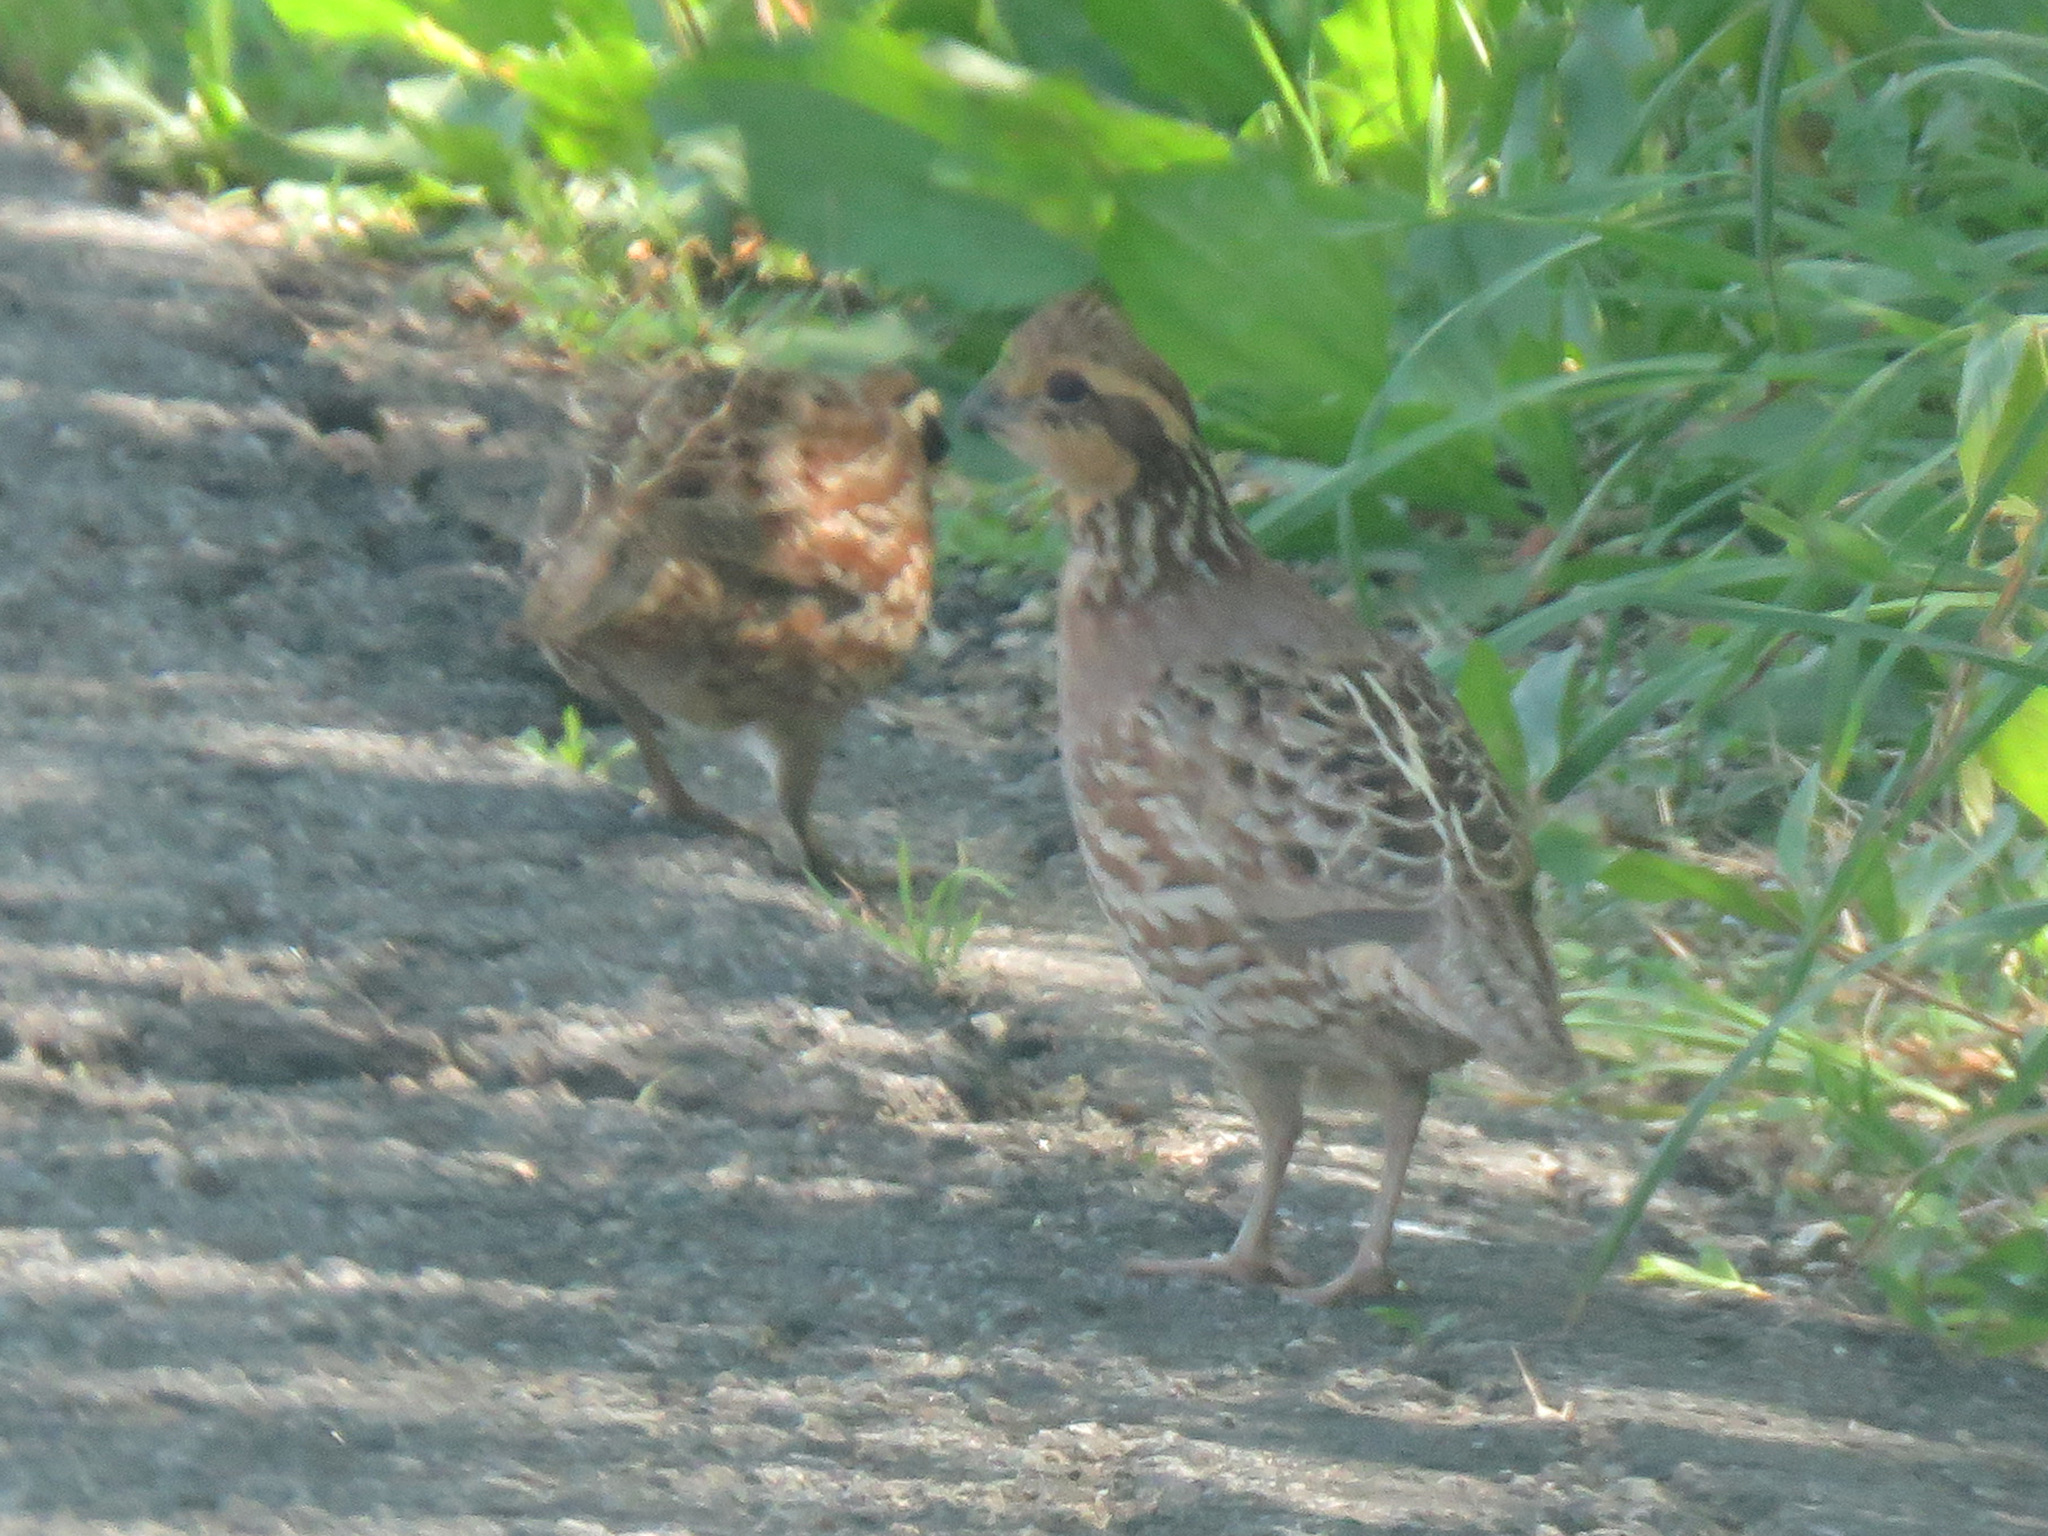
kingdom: Animalia
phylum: Chordata
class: Aves
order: Galliformes
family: Odontophoridae
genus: Colinus
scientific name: Colinus virginianus
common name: Northern bobwhite
